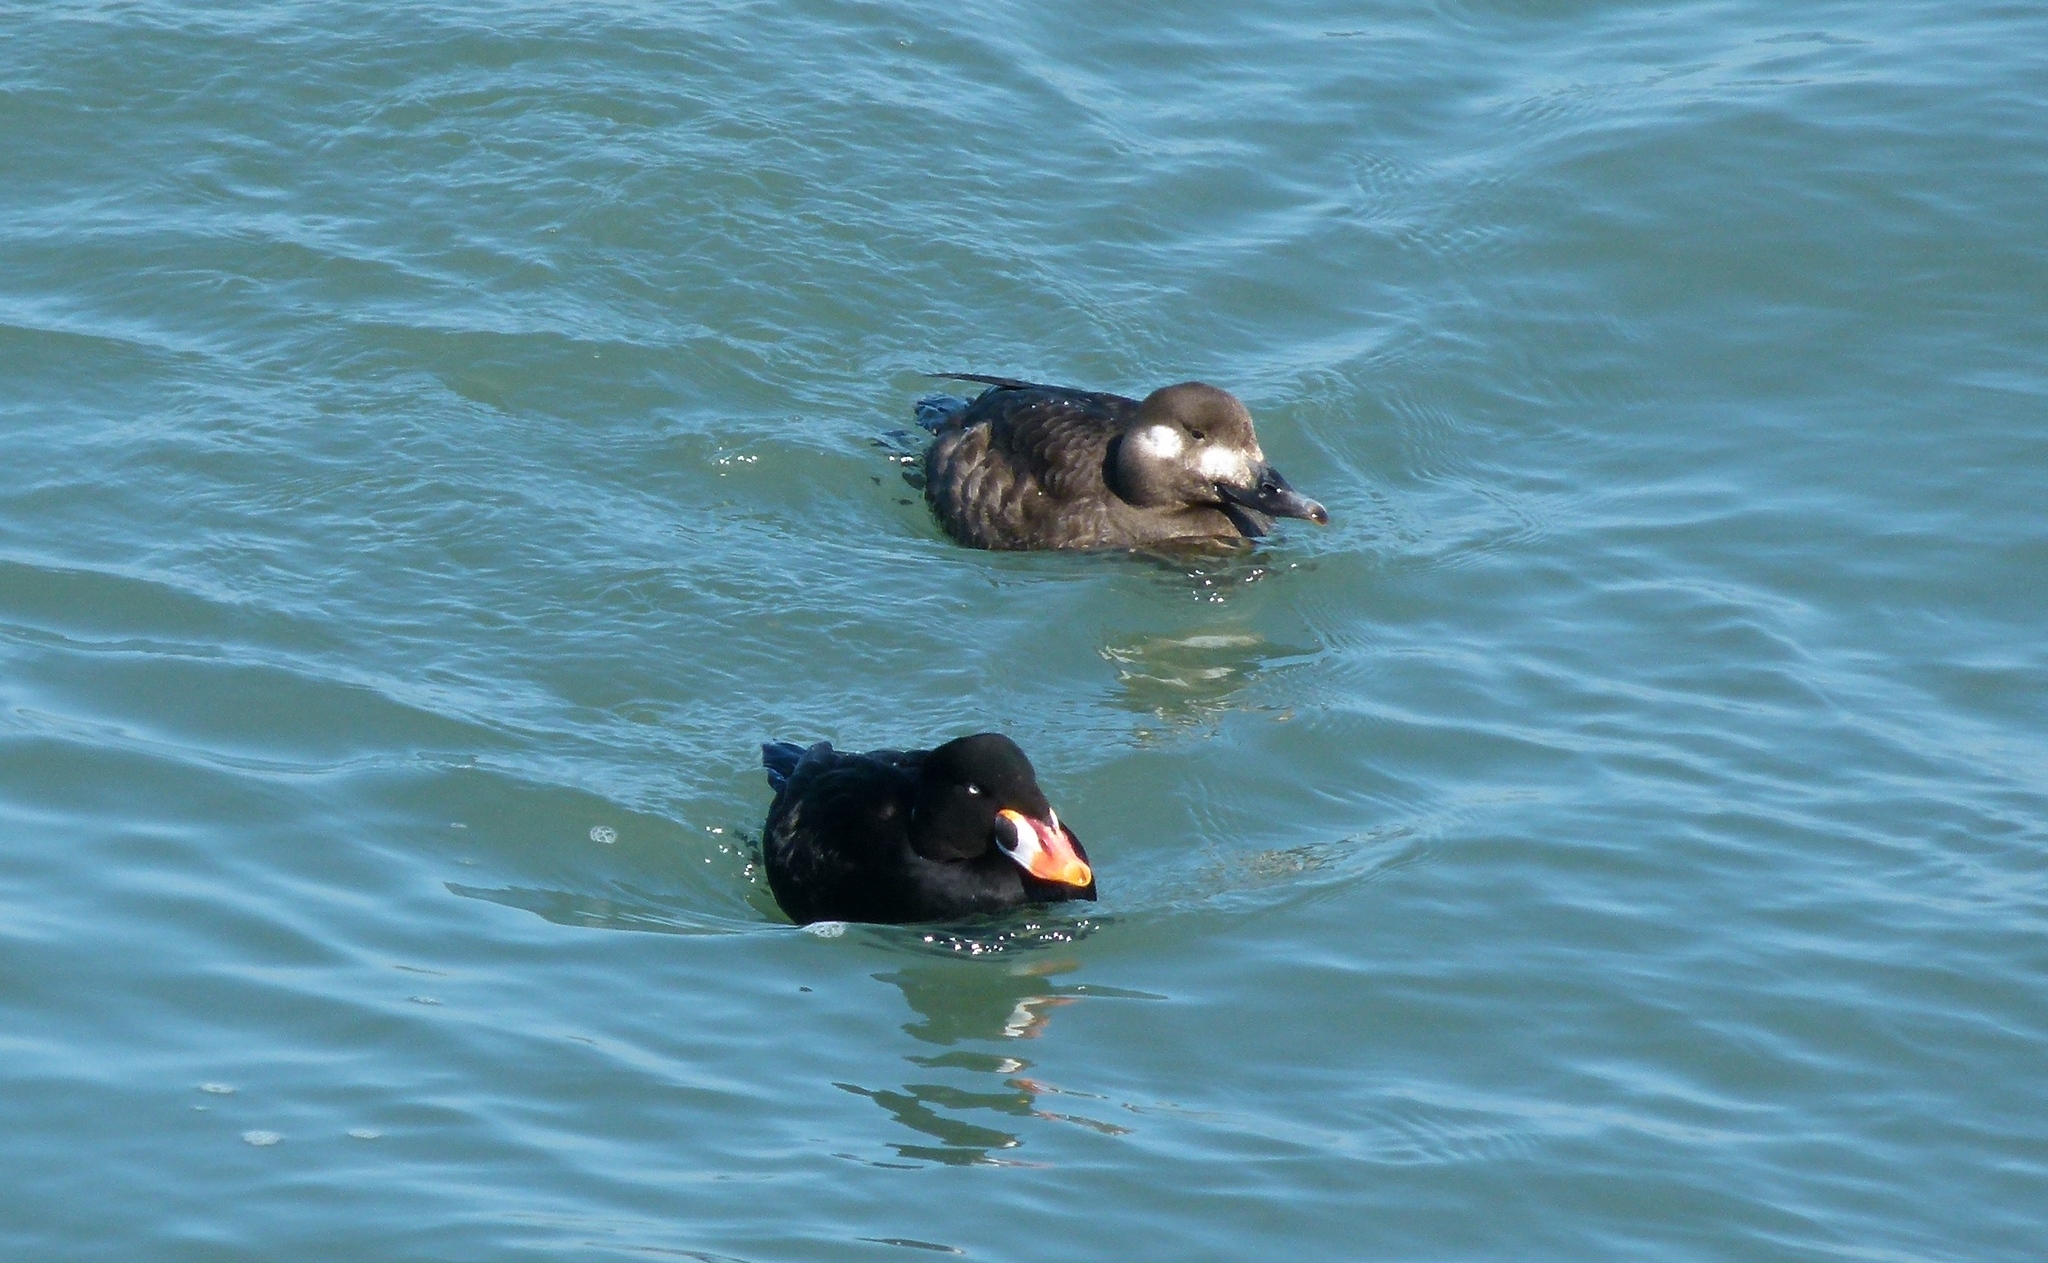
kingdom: Animalia
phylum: Chordata
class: Aves
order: Anseriformes
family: Anatidae
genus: Melanitta
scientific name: Melanitta deglandi
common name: White-winged scoter
